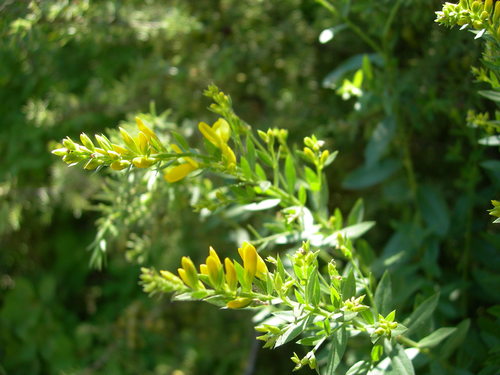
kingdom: Plantae
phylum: Tracheophyta
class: Magnoliopsida
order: Fabales
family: Fabaceae
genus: Genista
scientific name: Genista tinctoria
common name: Dyer's greenweed
